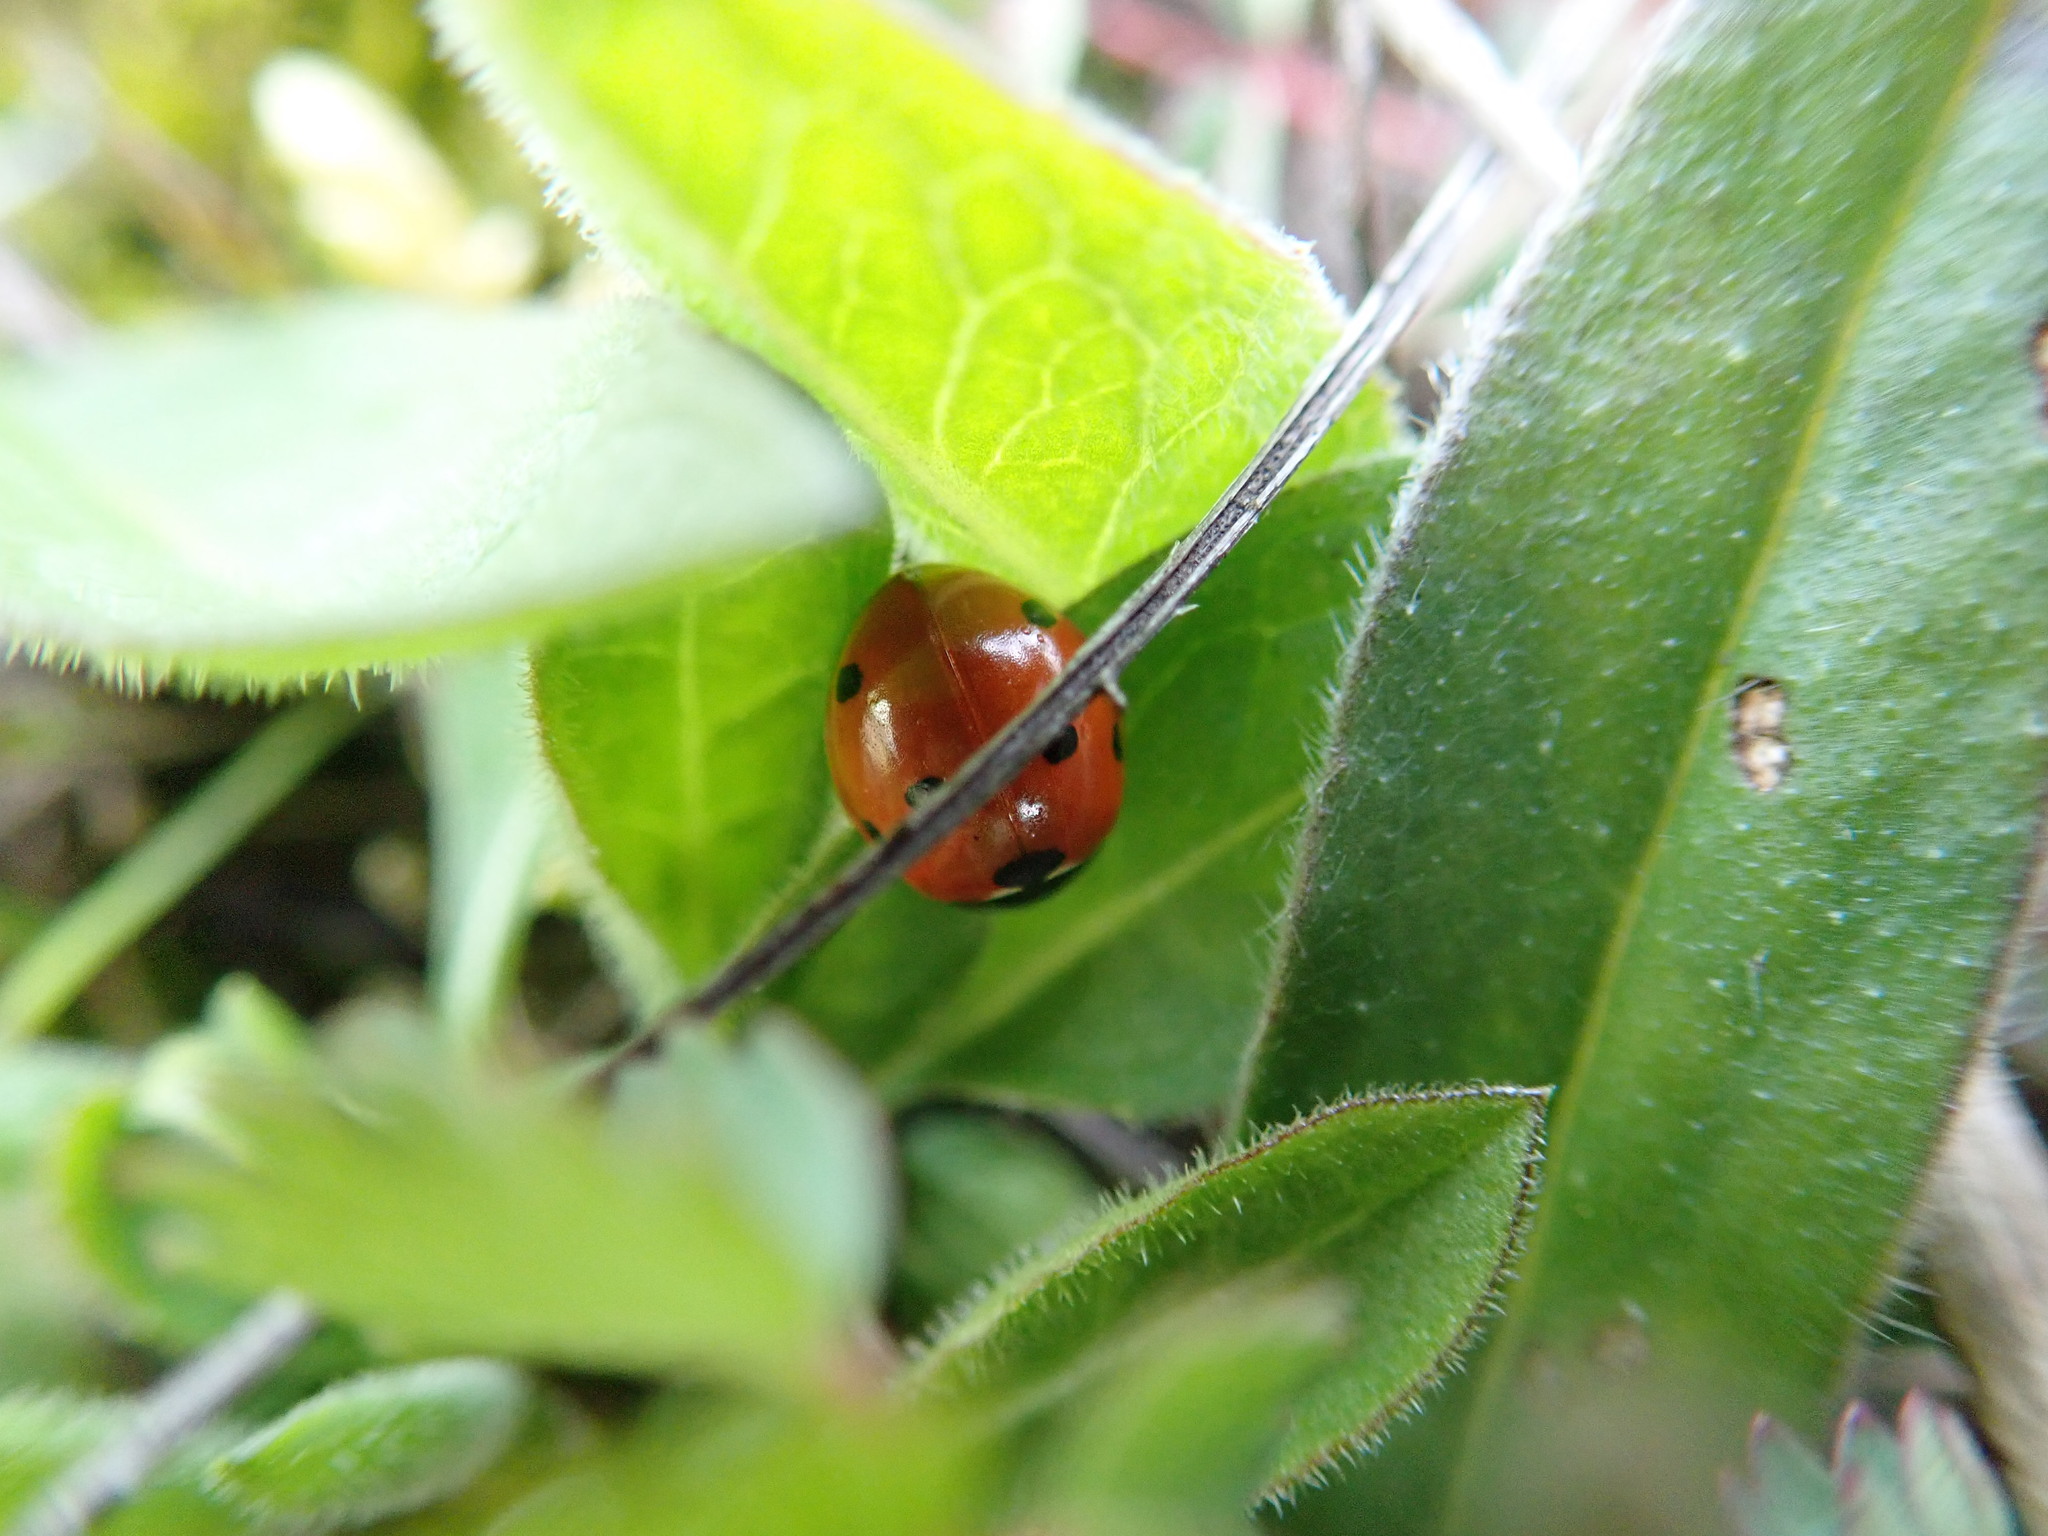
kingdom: Animalia
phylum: Arthropoda
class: Insecta
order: Coleoptera
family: Coccinellidae
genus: Coccinella
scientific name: Coccinella septempunctata
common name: Sevenspotted lady beetle
